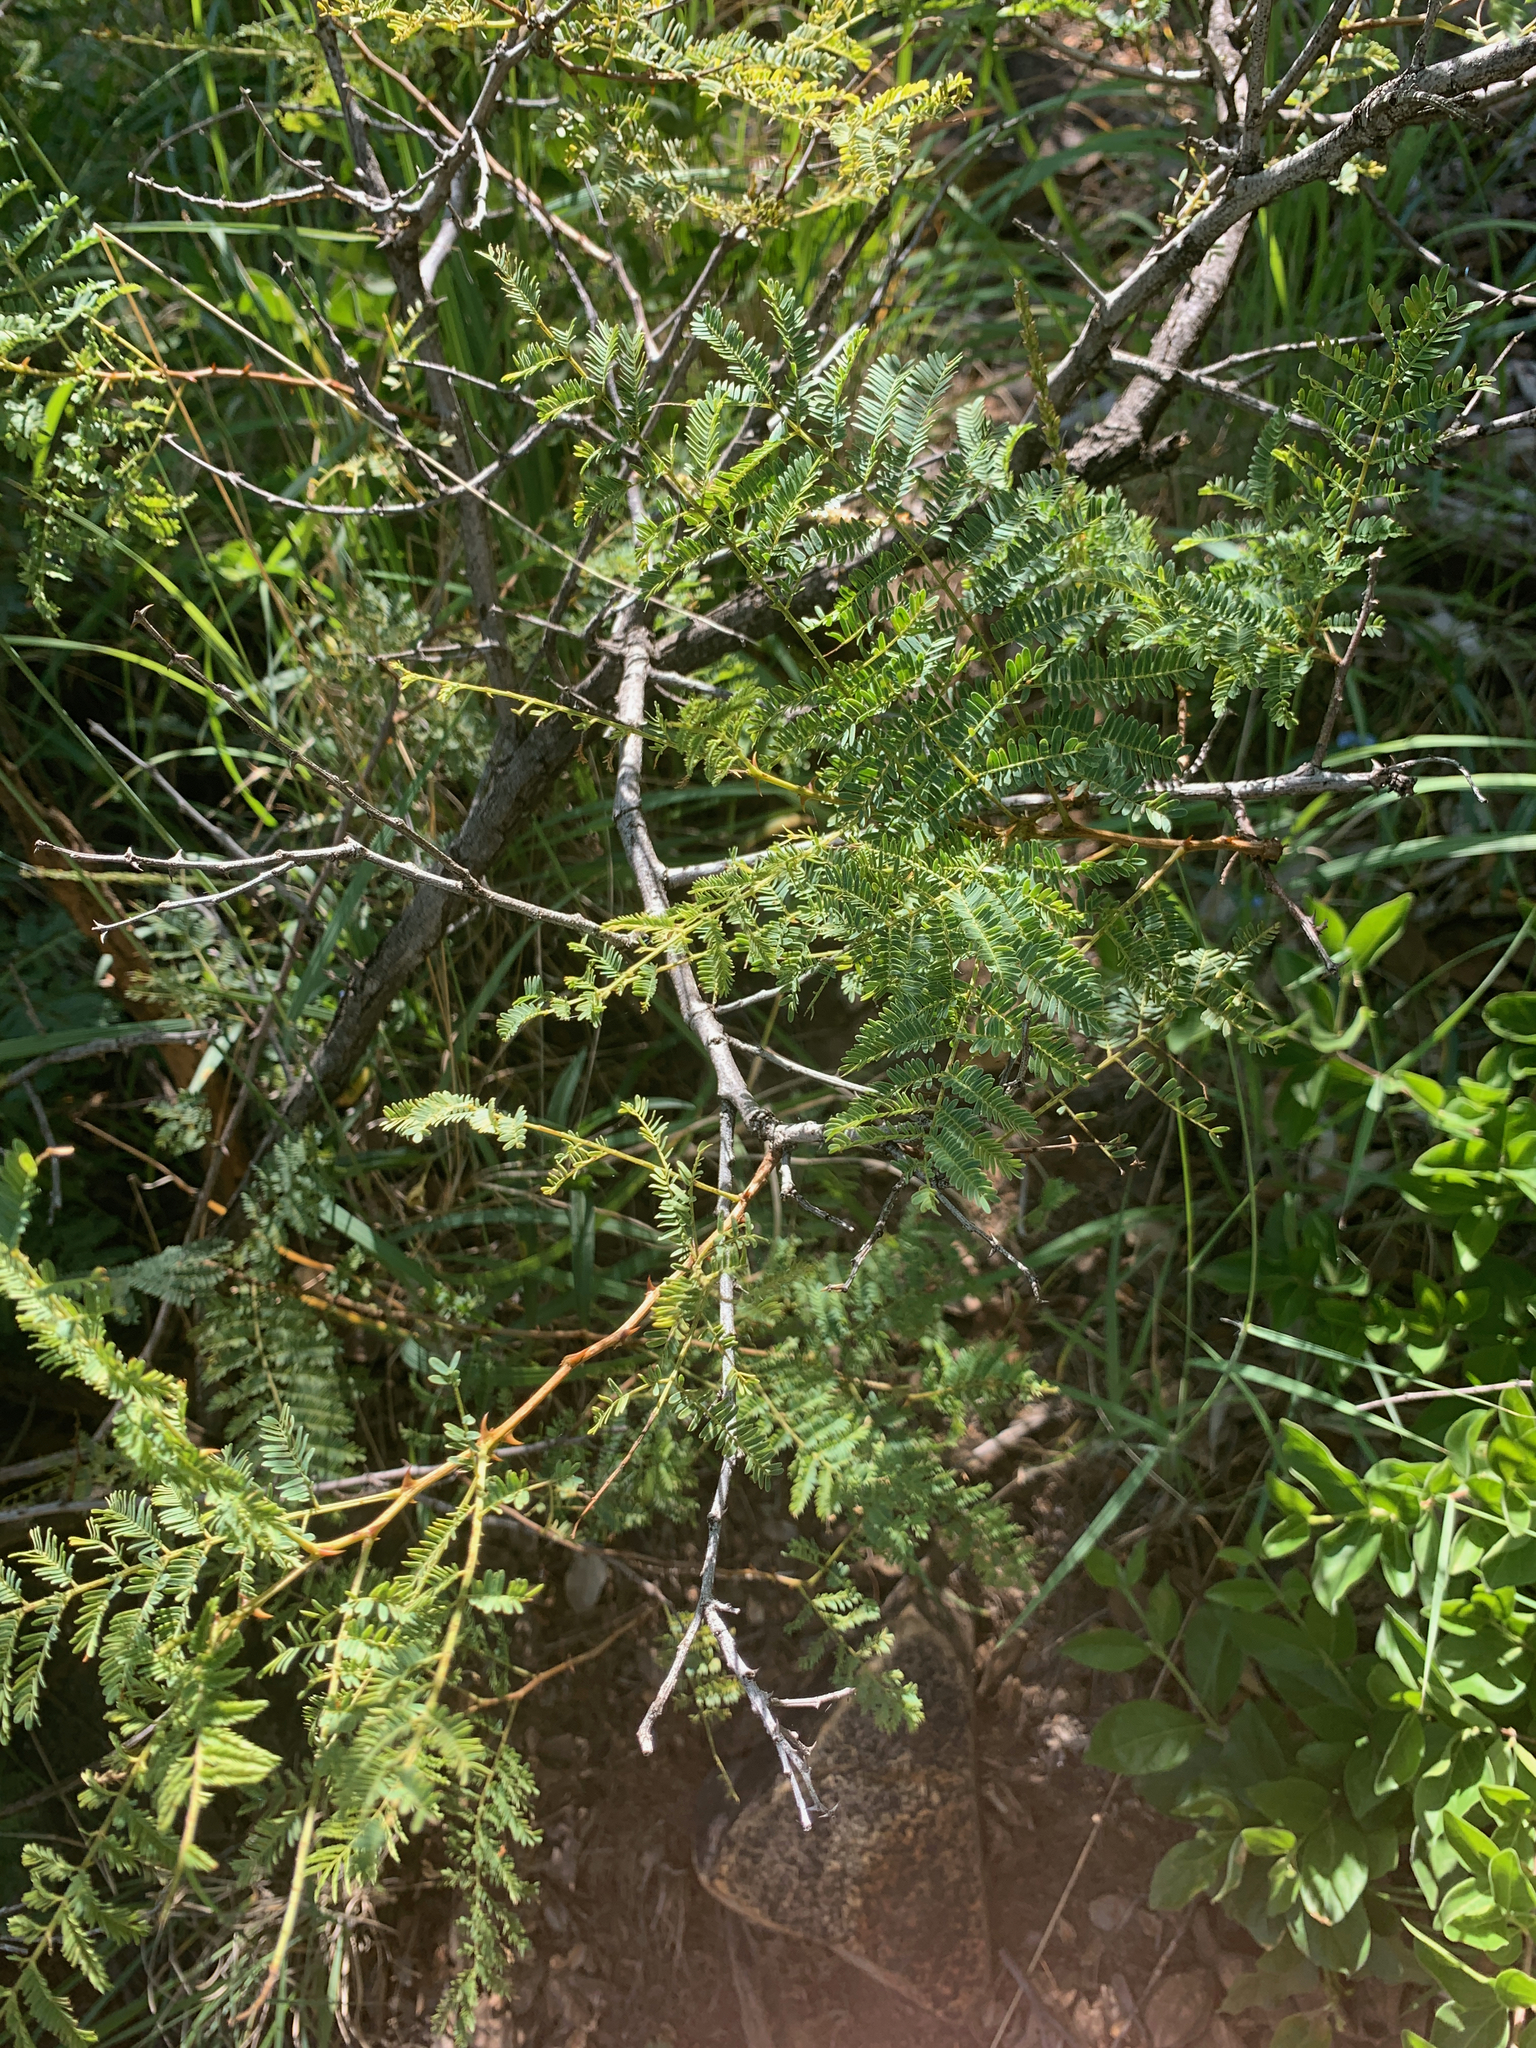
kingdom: Plantae
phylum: Tracheophyta
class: Magnoliopsida
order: Fabales
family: Fabaceae
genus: Senegalia
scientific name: Senegalia caffra
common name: Cat thorn
